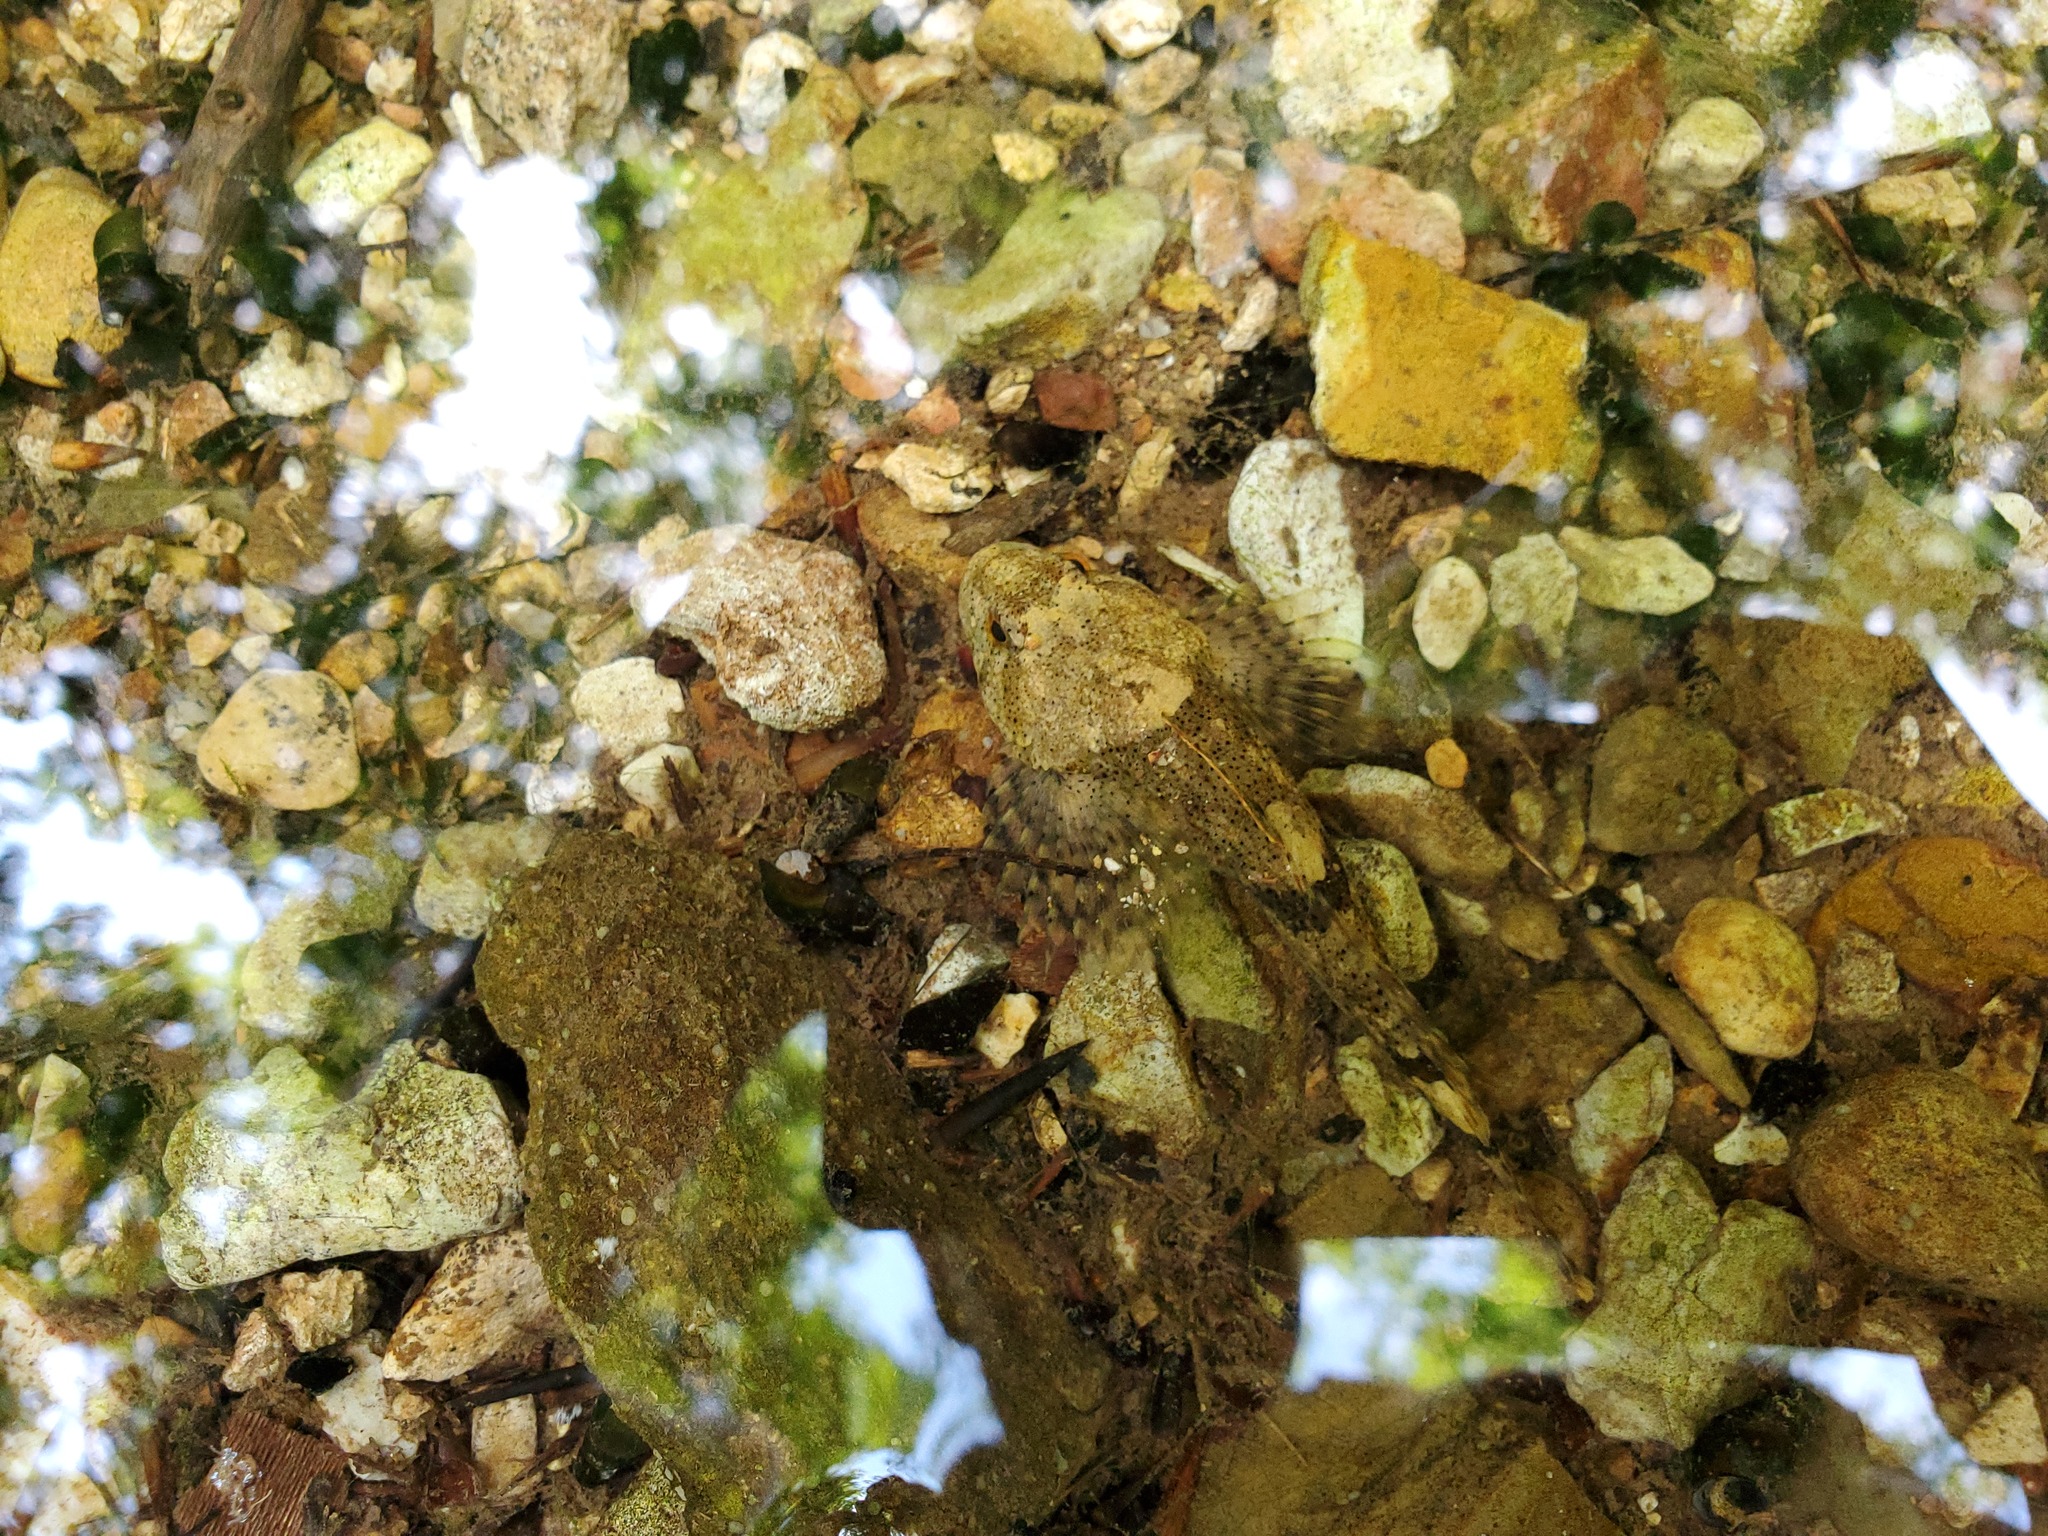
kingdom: Animalia
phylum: Chordata
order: Scorpaeniformes
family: Cottidae
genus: Cottus
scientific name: Cottus bairdii
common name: Mottled sculpin
